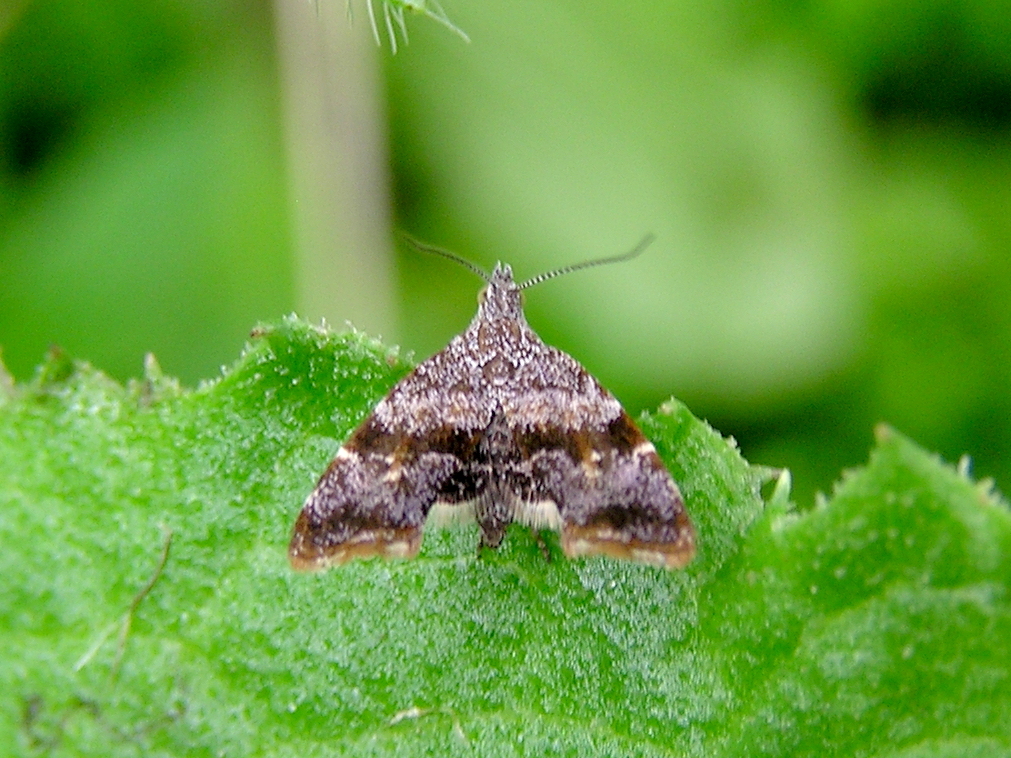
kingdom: Animalia
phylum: Arthropoda
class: Insecta
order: Lepidoptera
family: Choreutidae
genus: Asterivora
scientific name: Asterivora colpota
